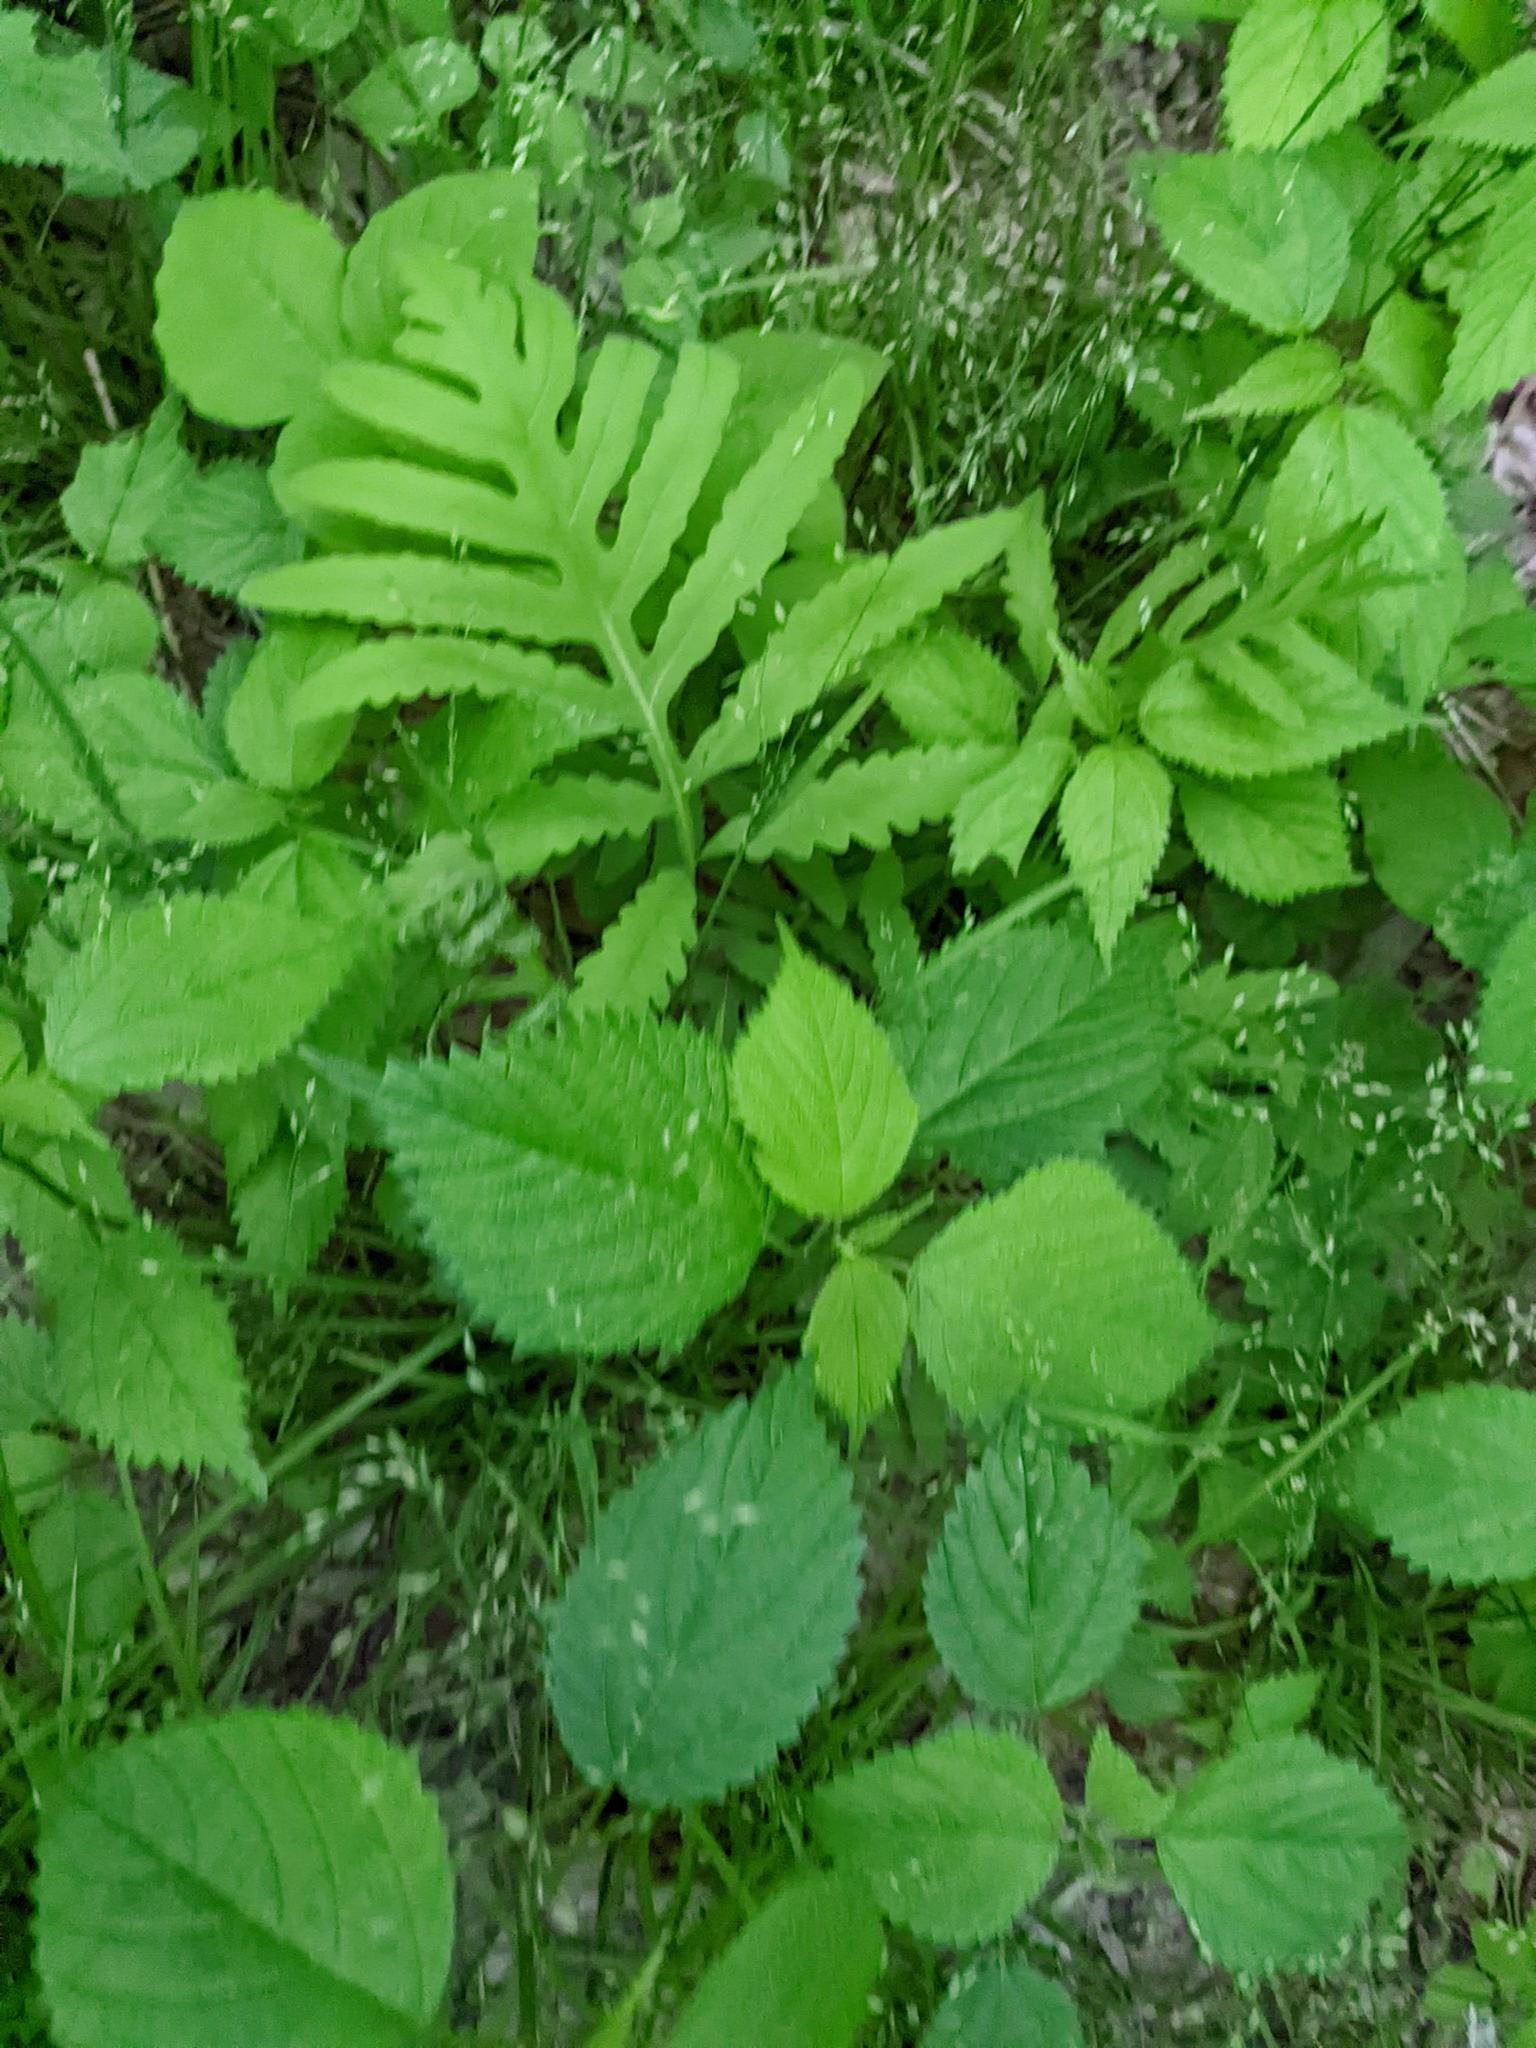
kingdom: Plantae
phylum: Tracheophyta
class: Magnoliopsida
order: Rosales
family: Urticaceae
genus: Laportea
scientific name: Laportea canadensis
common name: Canada nettle
